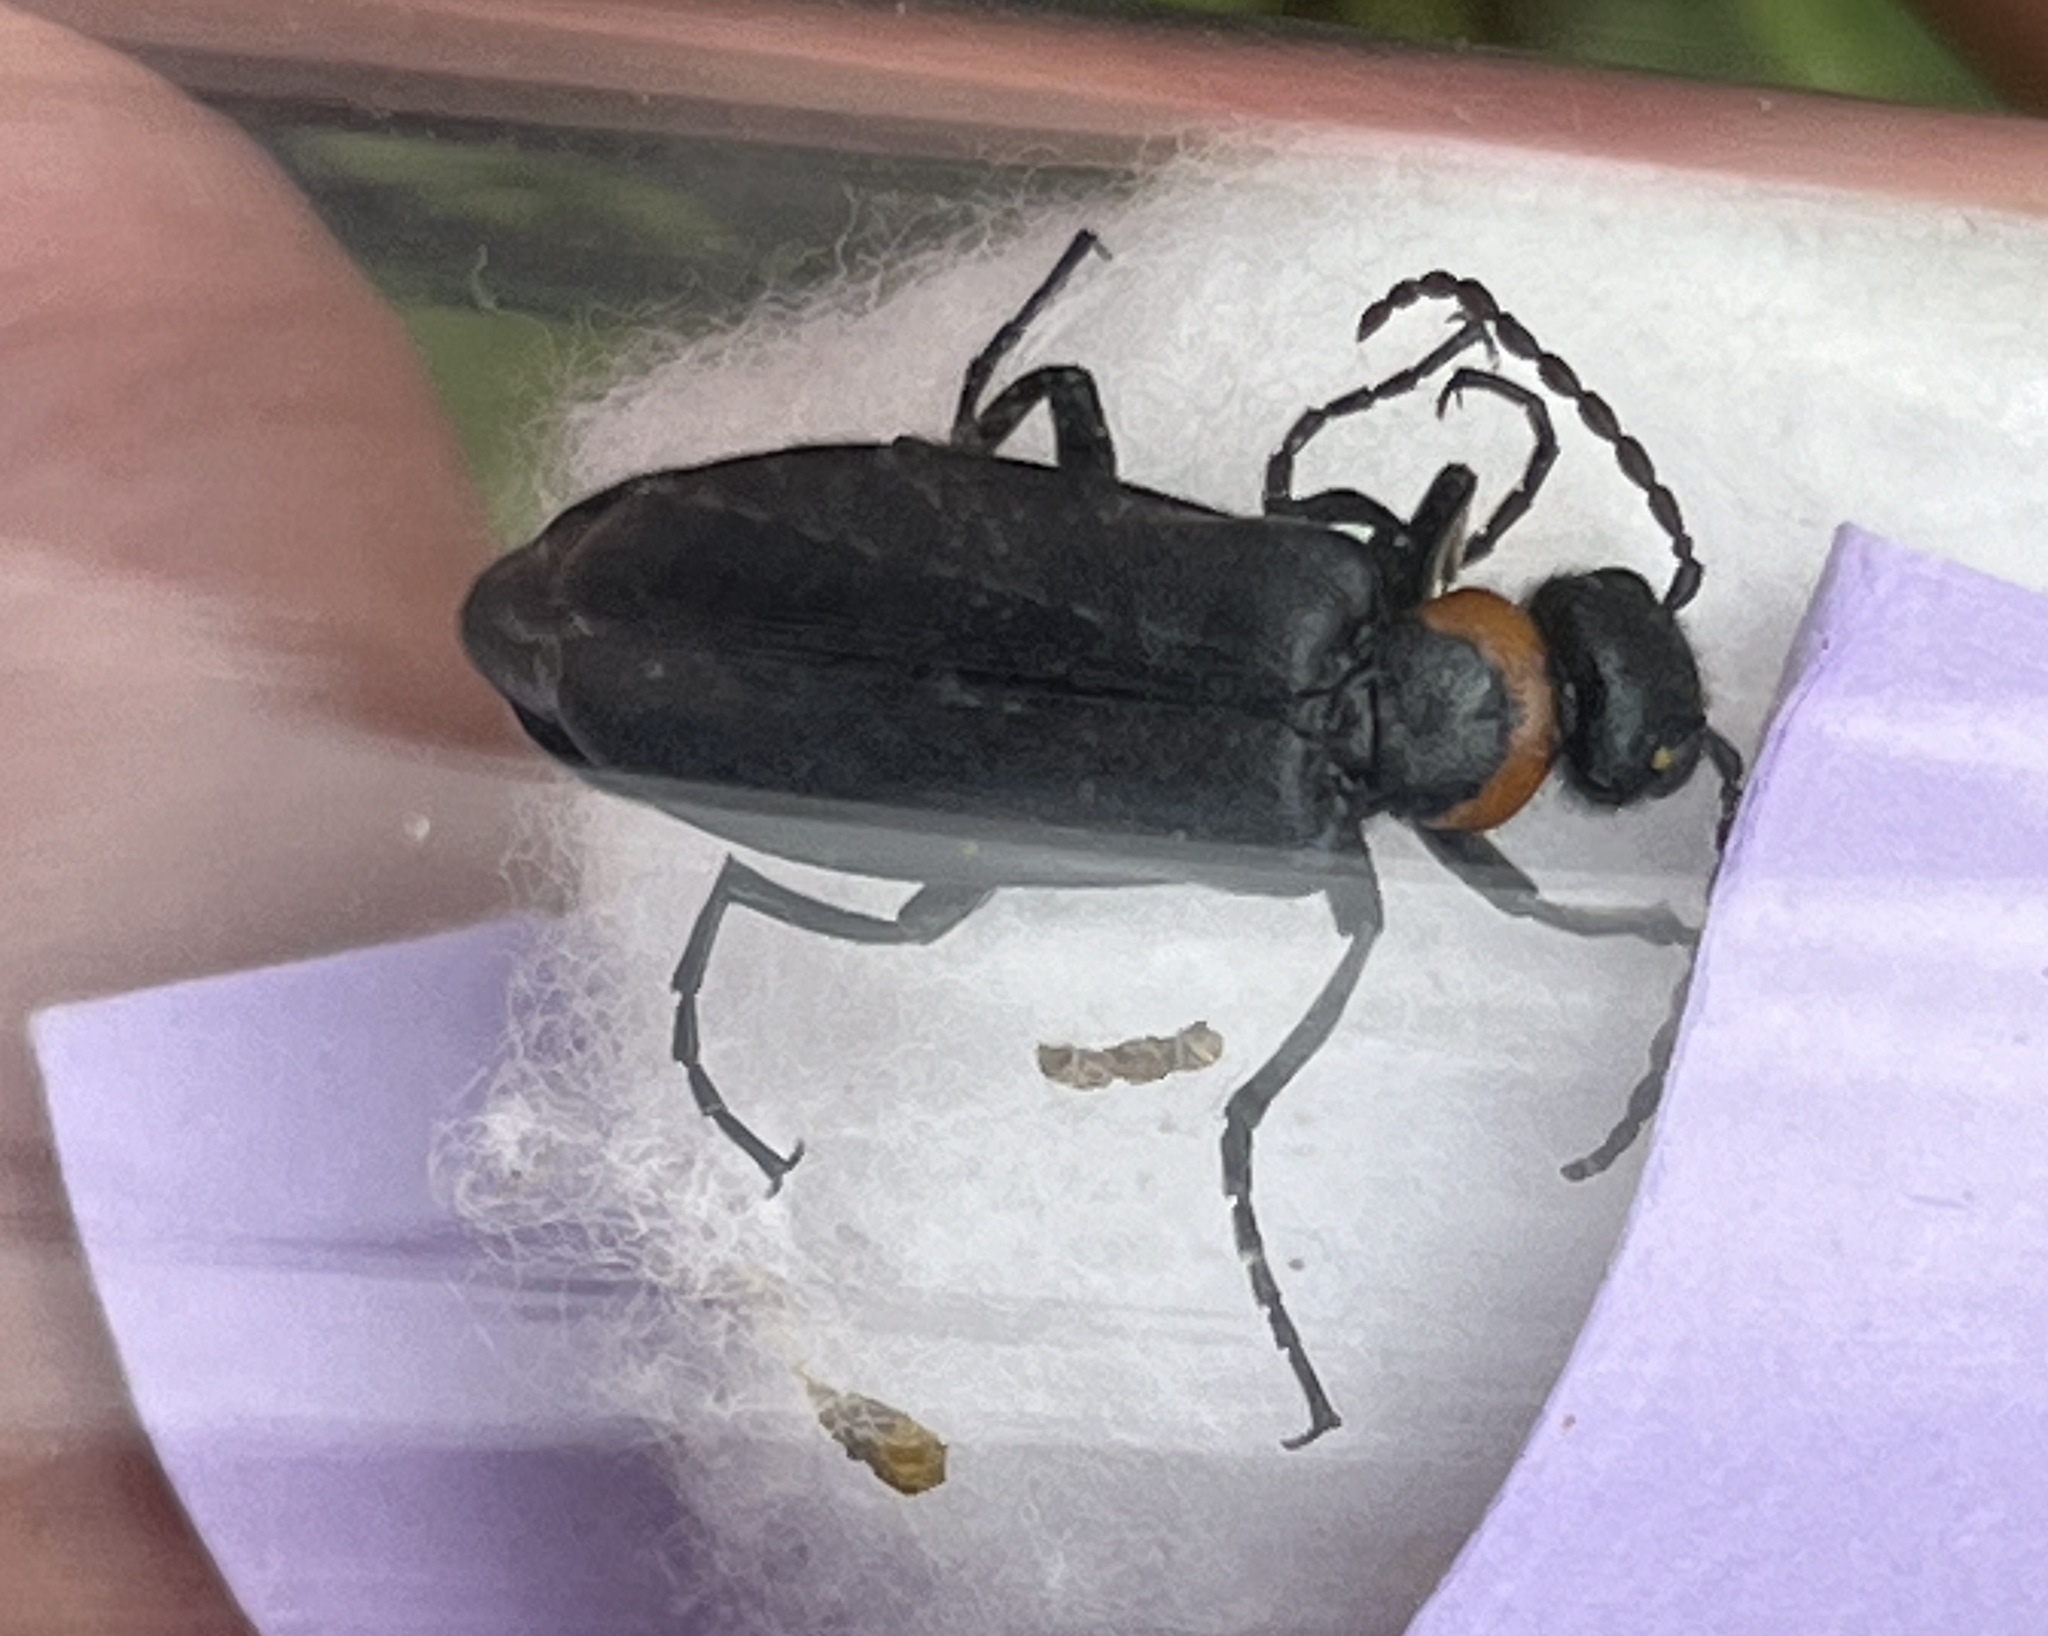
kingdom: Animalia
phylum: Arthropoda
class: Insecta
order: Coleoptera
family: Meloidae
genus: Alosimus
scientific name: Alosimus
